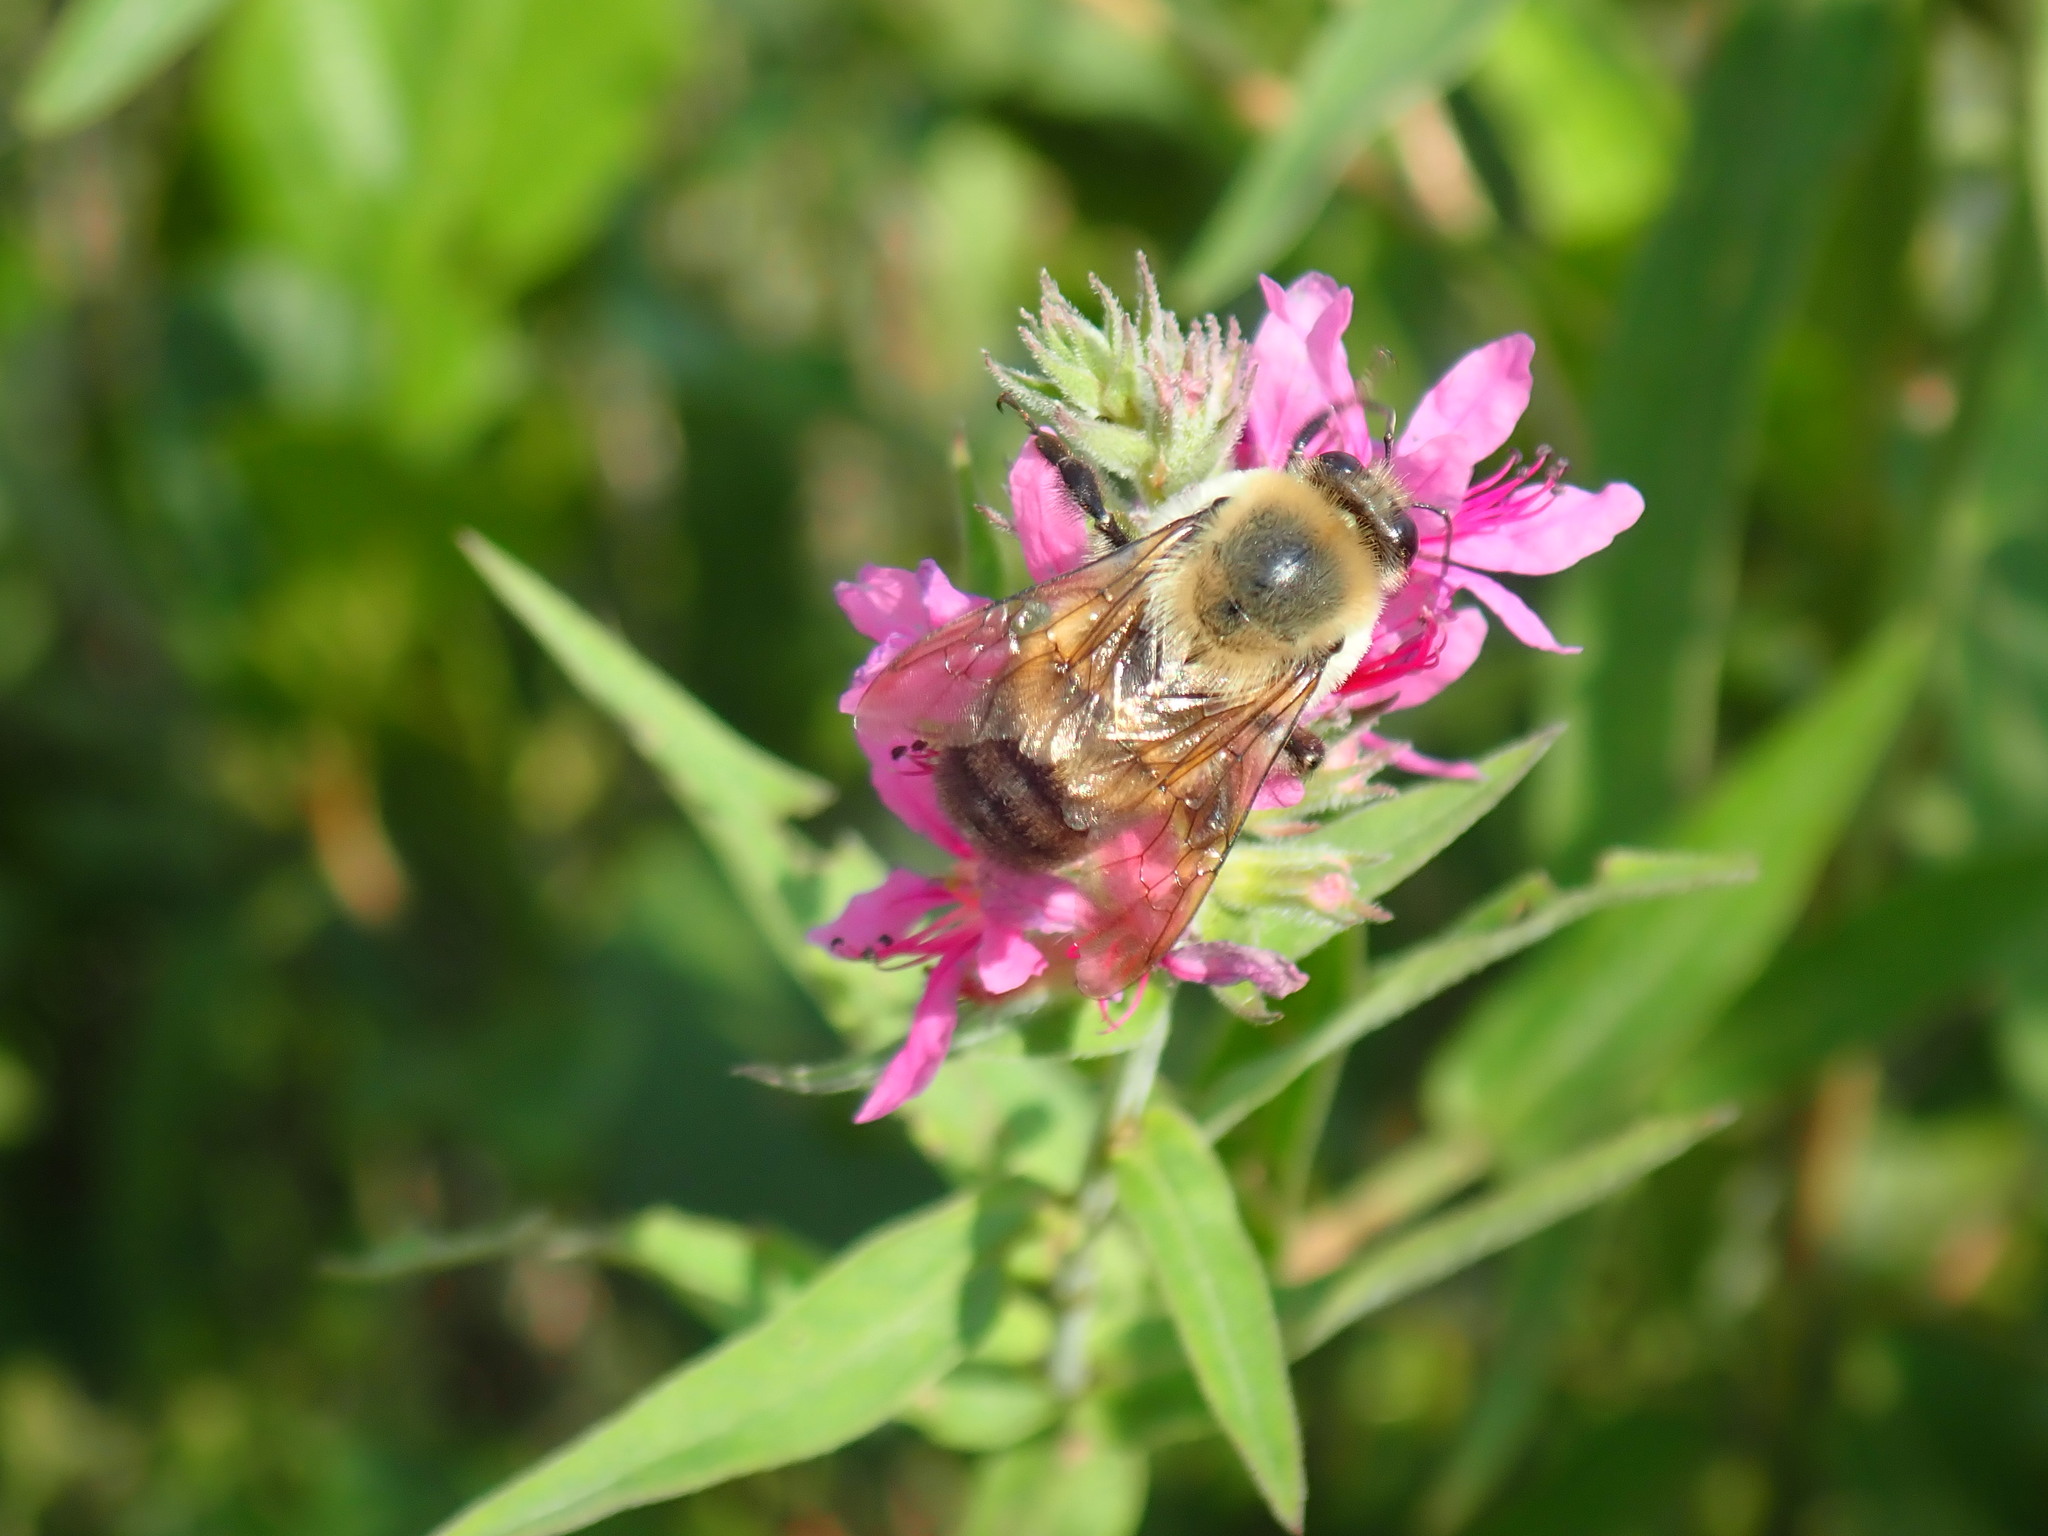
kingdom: Animalia
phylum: Arthropoda
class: Insecta
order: Hymenoptera
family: Apidae
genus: Bombus
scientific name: Bombus griseocollis
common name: Brown-belted bumble bee
